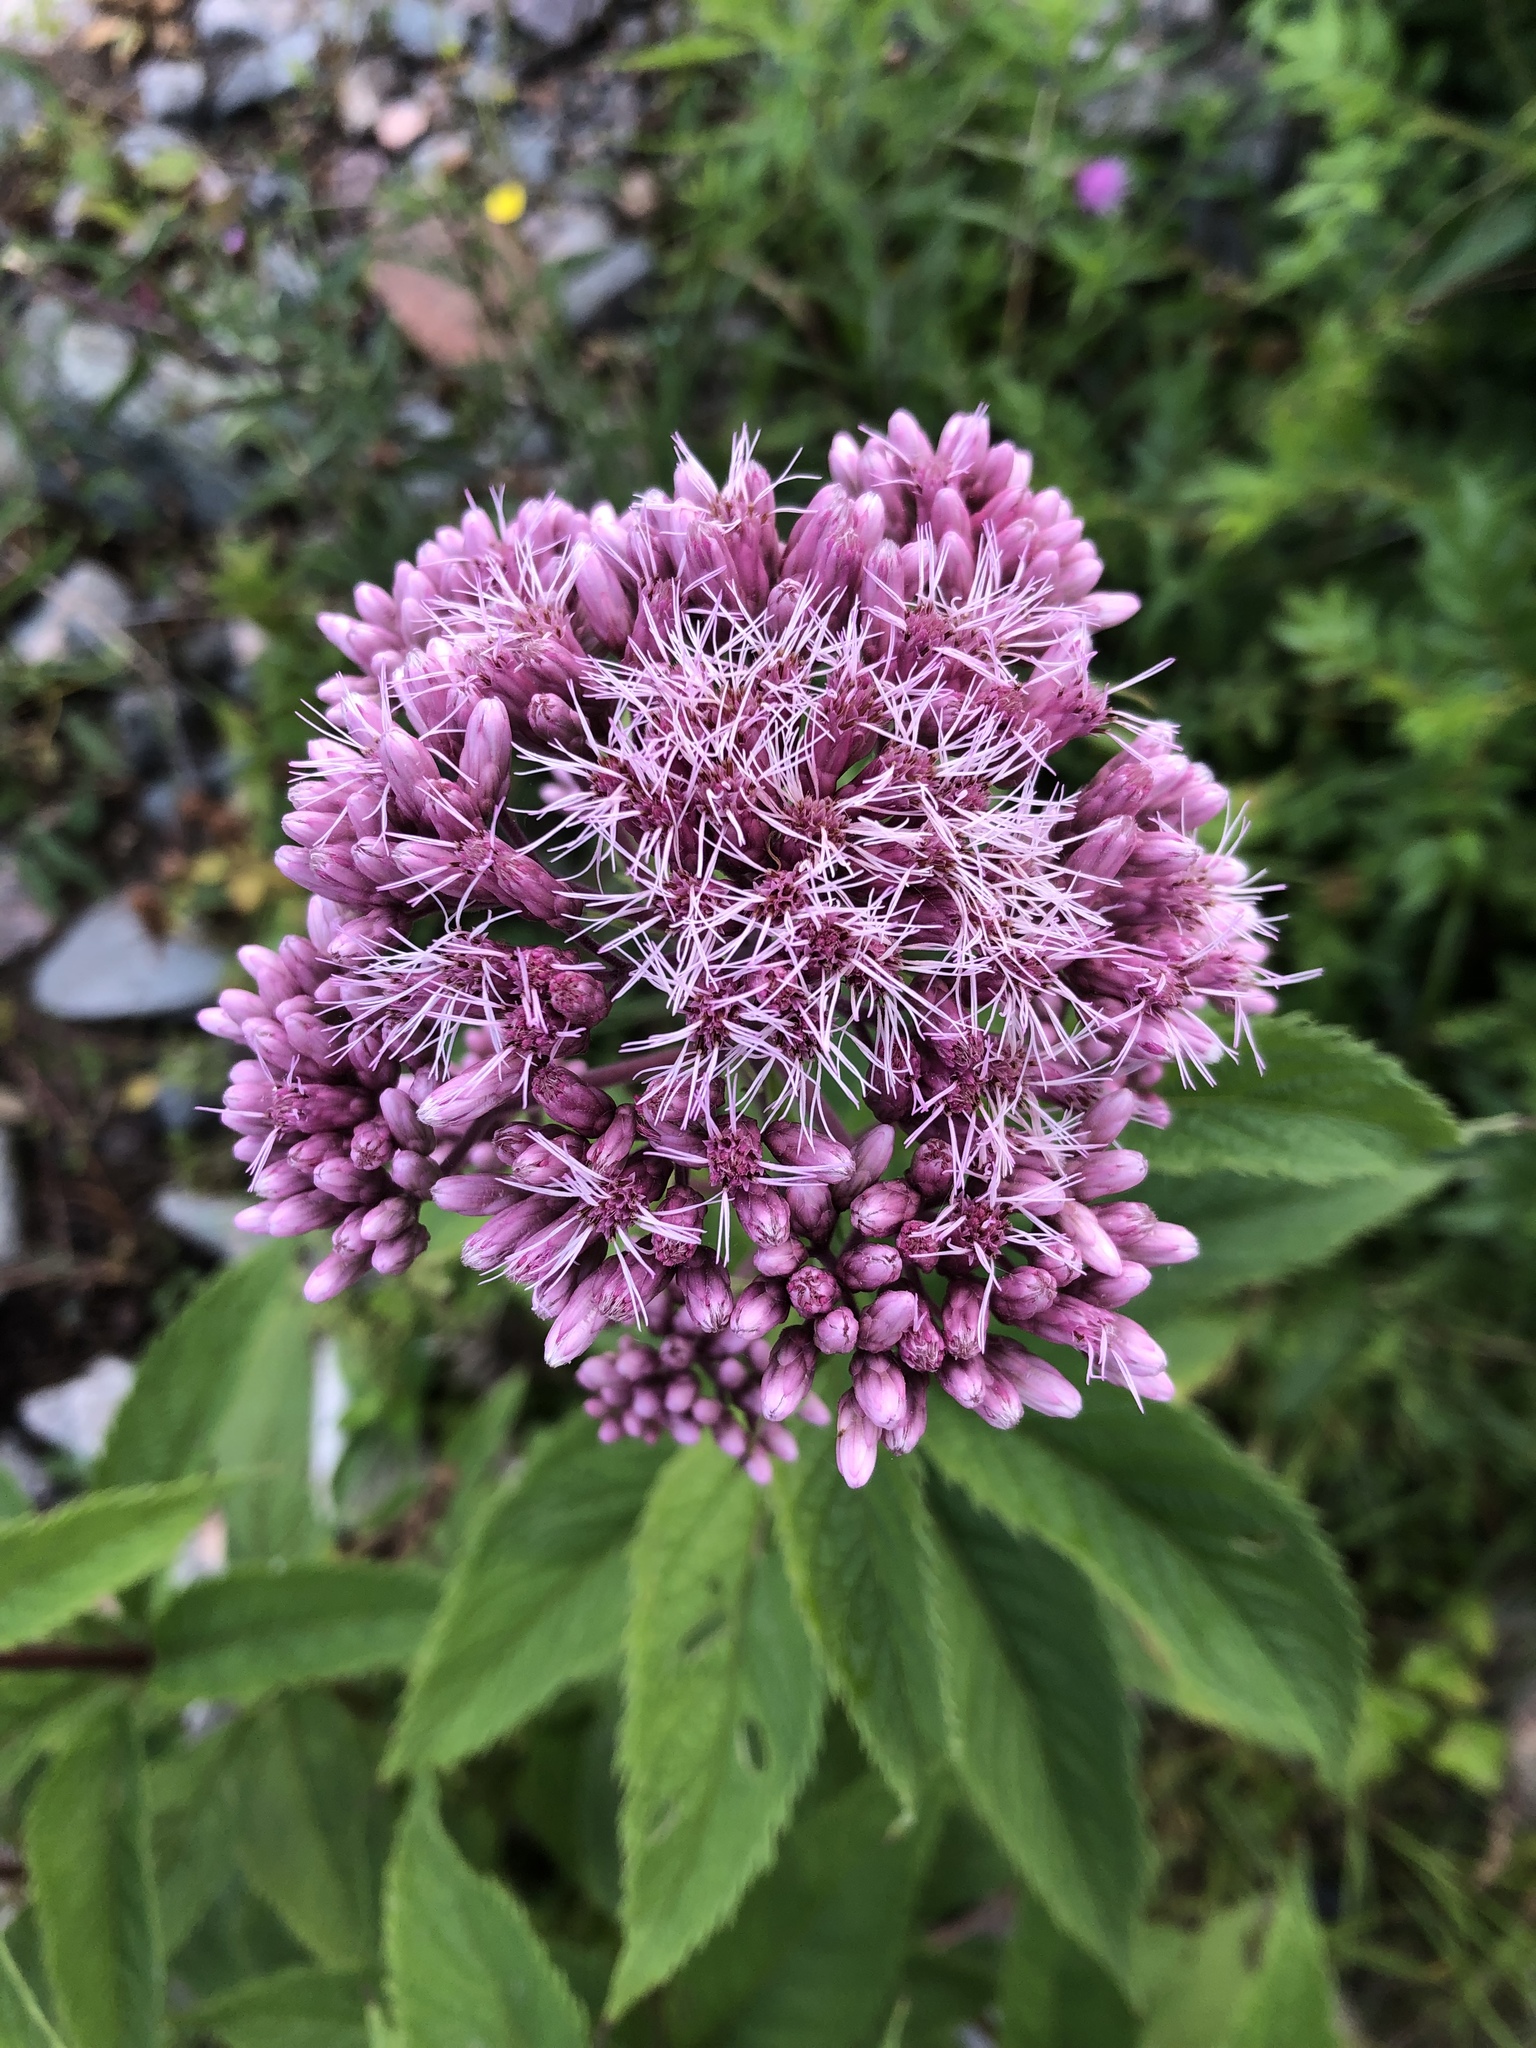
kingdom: Plantae
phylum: Tracheophyta
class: Magnoliopsida
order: Asterales
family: Asteraceae
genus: Eutrochium
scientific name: Eutrochium maculatum
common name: Spotted joe pye weed
